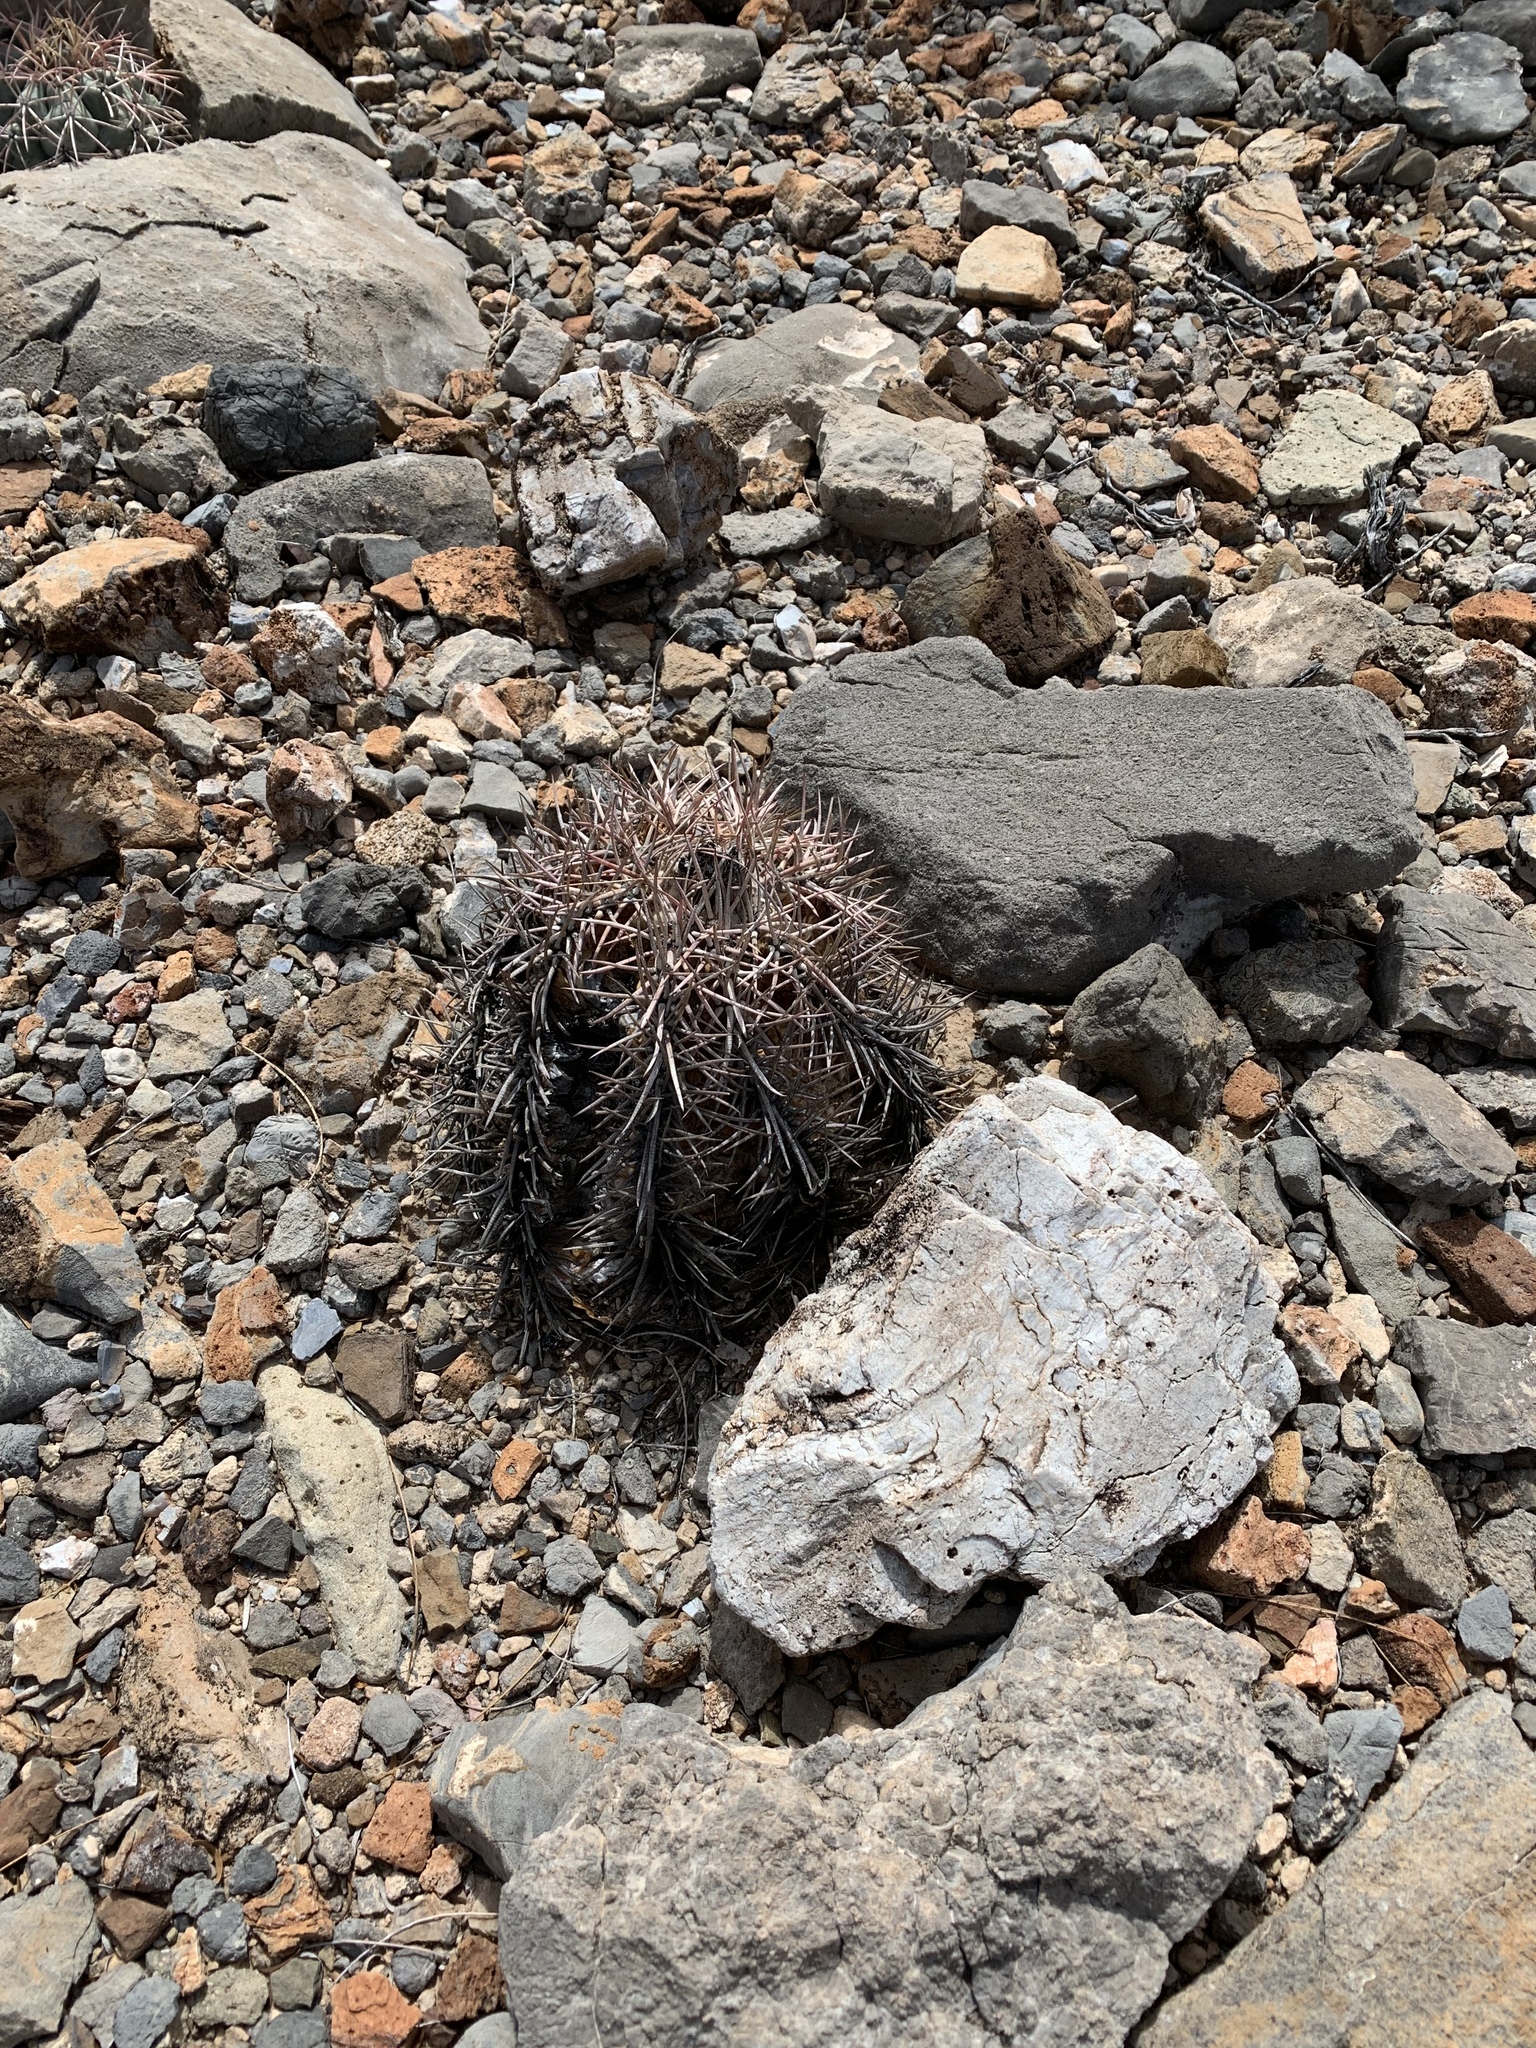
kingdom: Plantae
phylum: Tracheophyta
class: Magnoliopsida
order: Caryophyllales
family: Cactaceae
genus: Echinocactus
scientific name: Echinocactus horizonthalonius
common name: Devilshead
